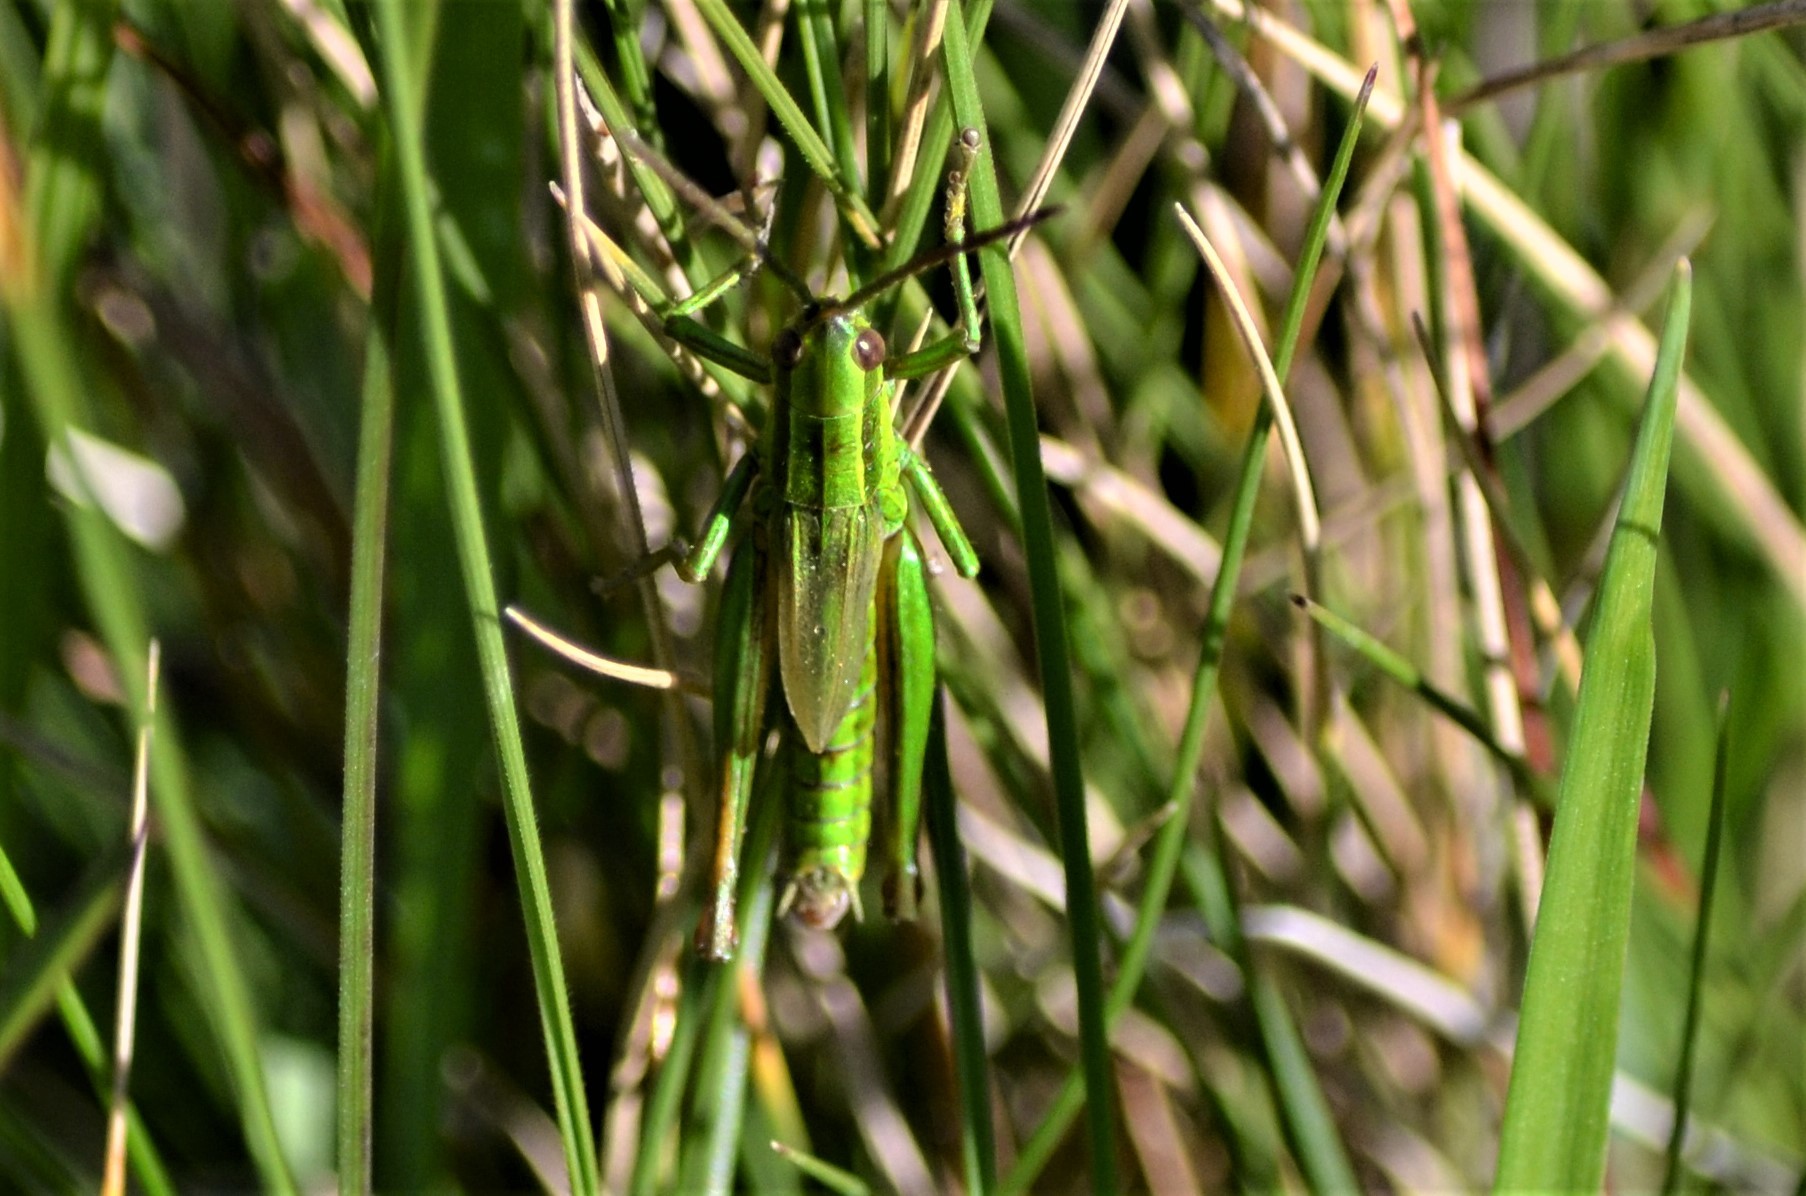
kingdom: Animalia
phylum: Arthropoda
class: Insecta
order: Orthoptera
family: Acrididae
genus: Euthystira
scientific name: Euthystira brachyptera
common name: Small gold grasshopper
